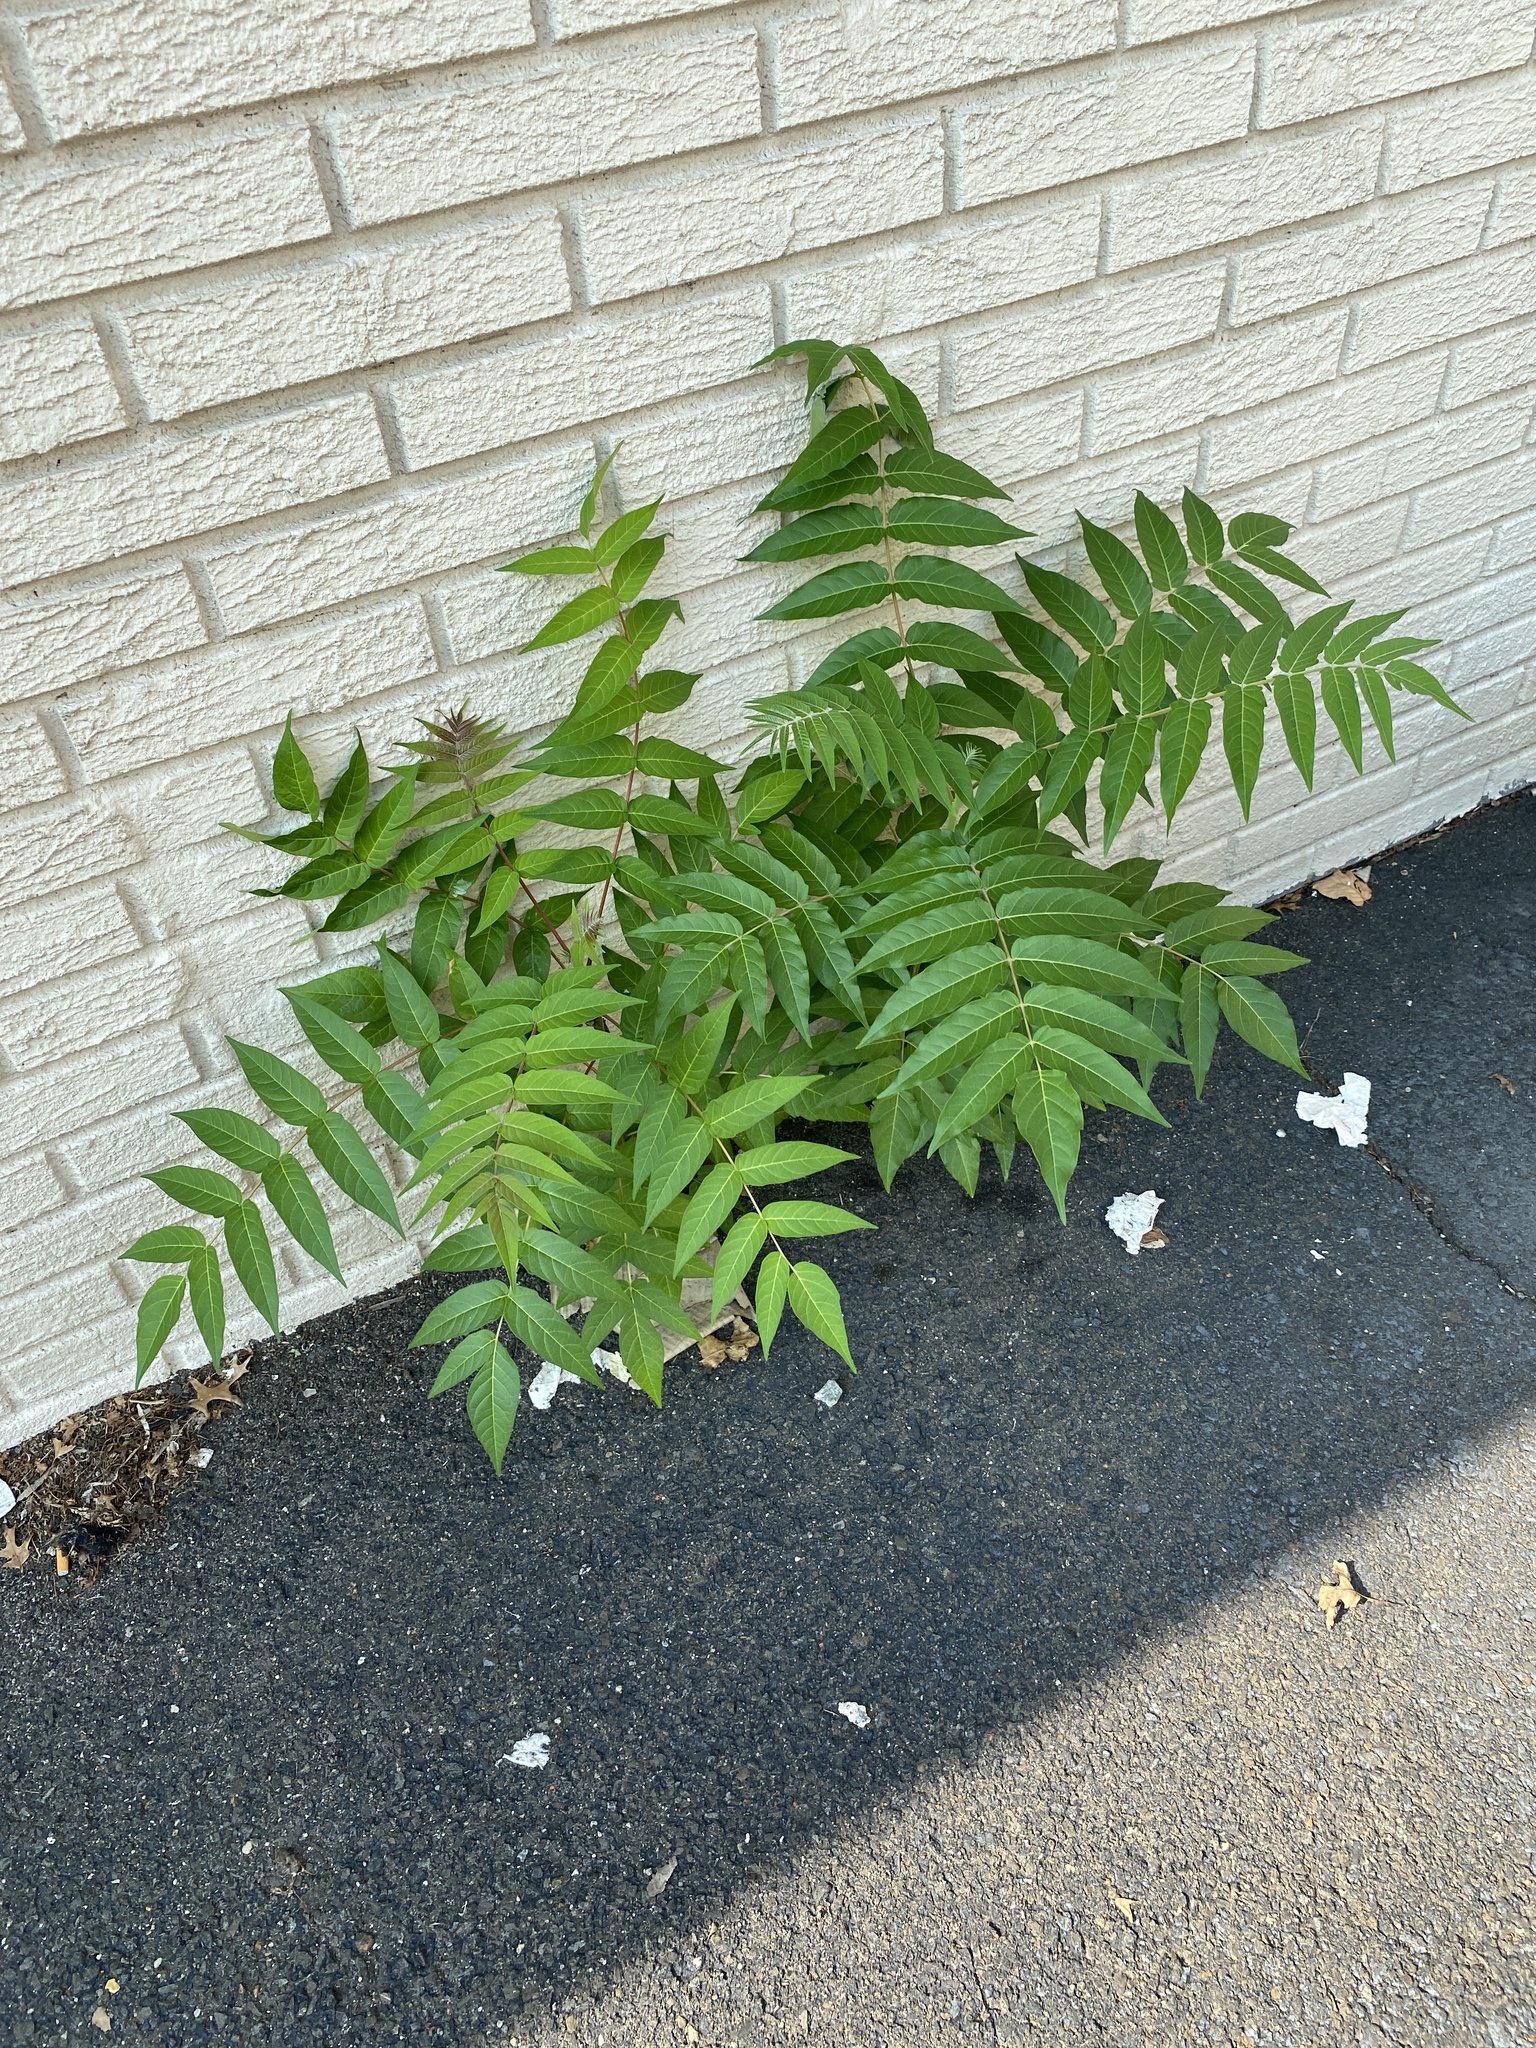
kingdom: Plantae
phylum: Tracheophyta
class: Magnoliopsida
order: Sapindales
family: Simaroubaceae
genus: Ailanthus
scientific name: Ailanthus altissima
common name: Tree-of-heaven
